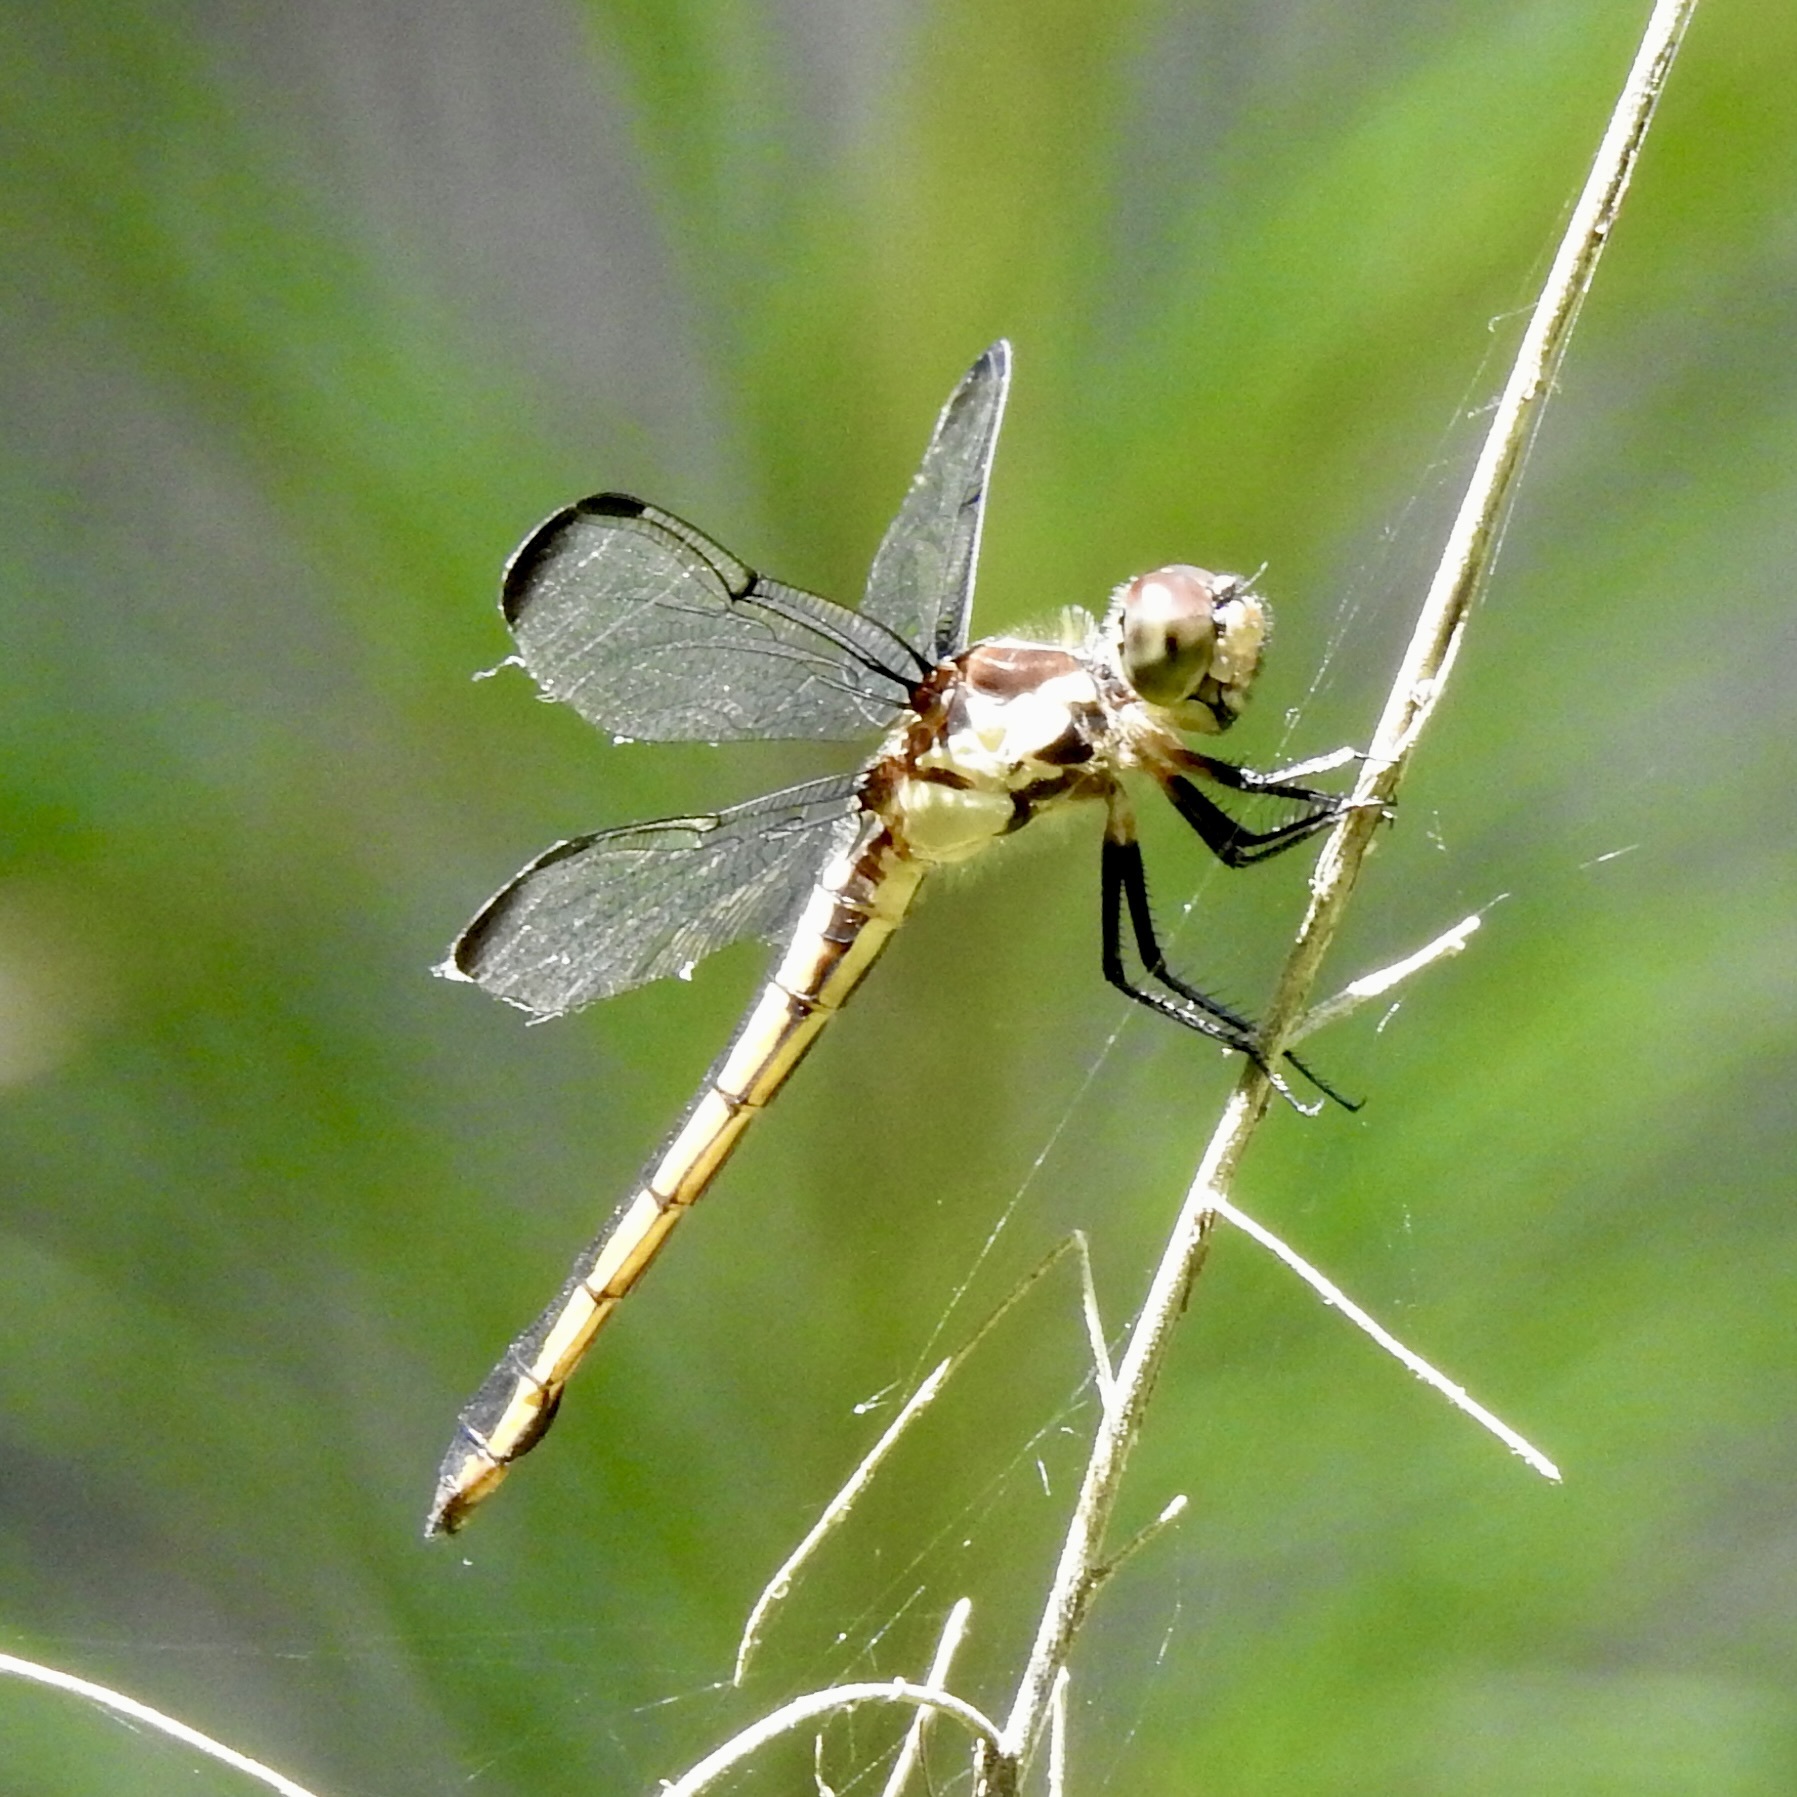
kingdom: Animalia
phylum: Arthropoda
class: Insecta
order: Odonata
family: Libellulidae
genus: Libellula
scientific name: Libellula incesta
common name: Slaty skimmer
